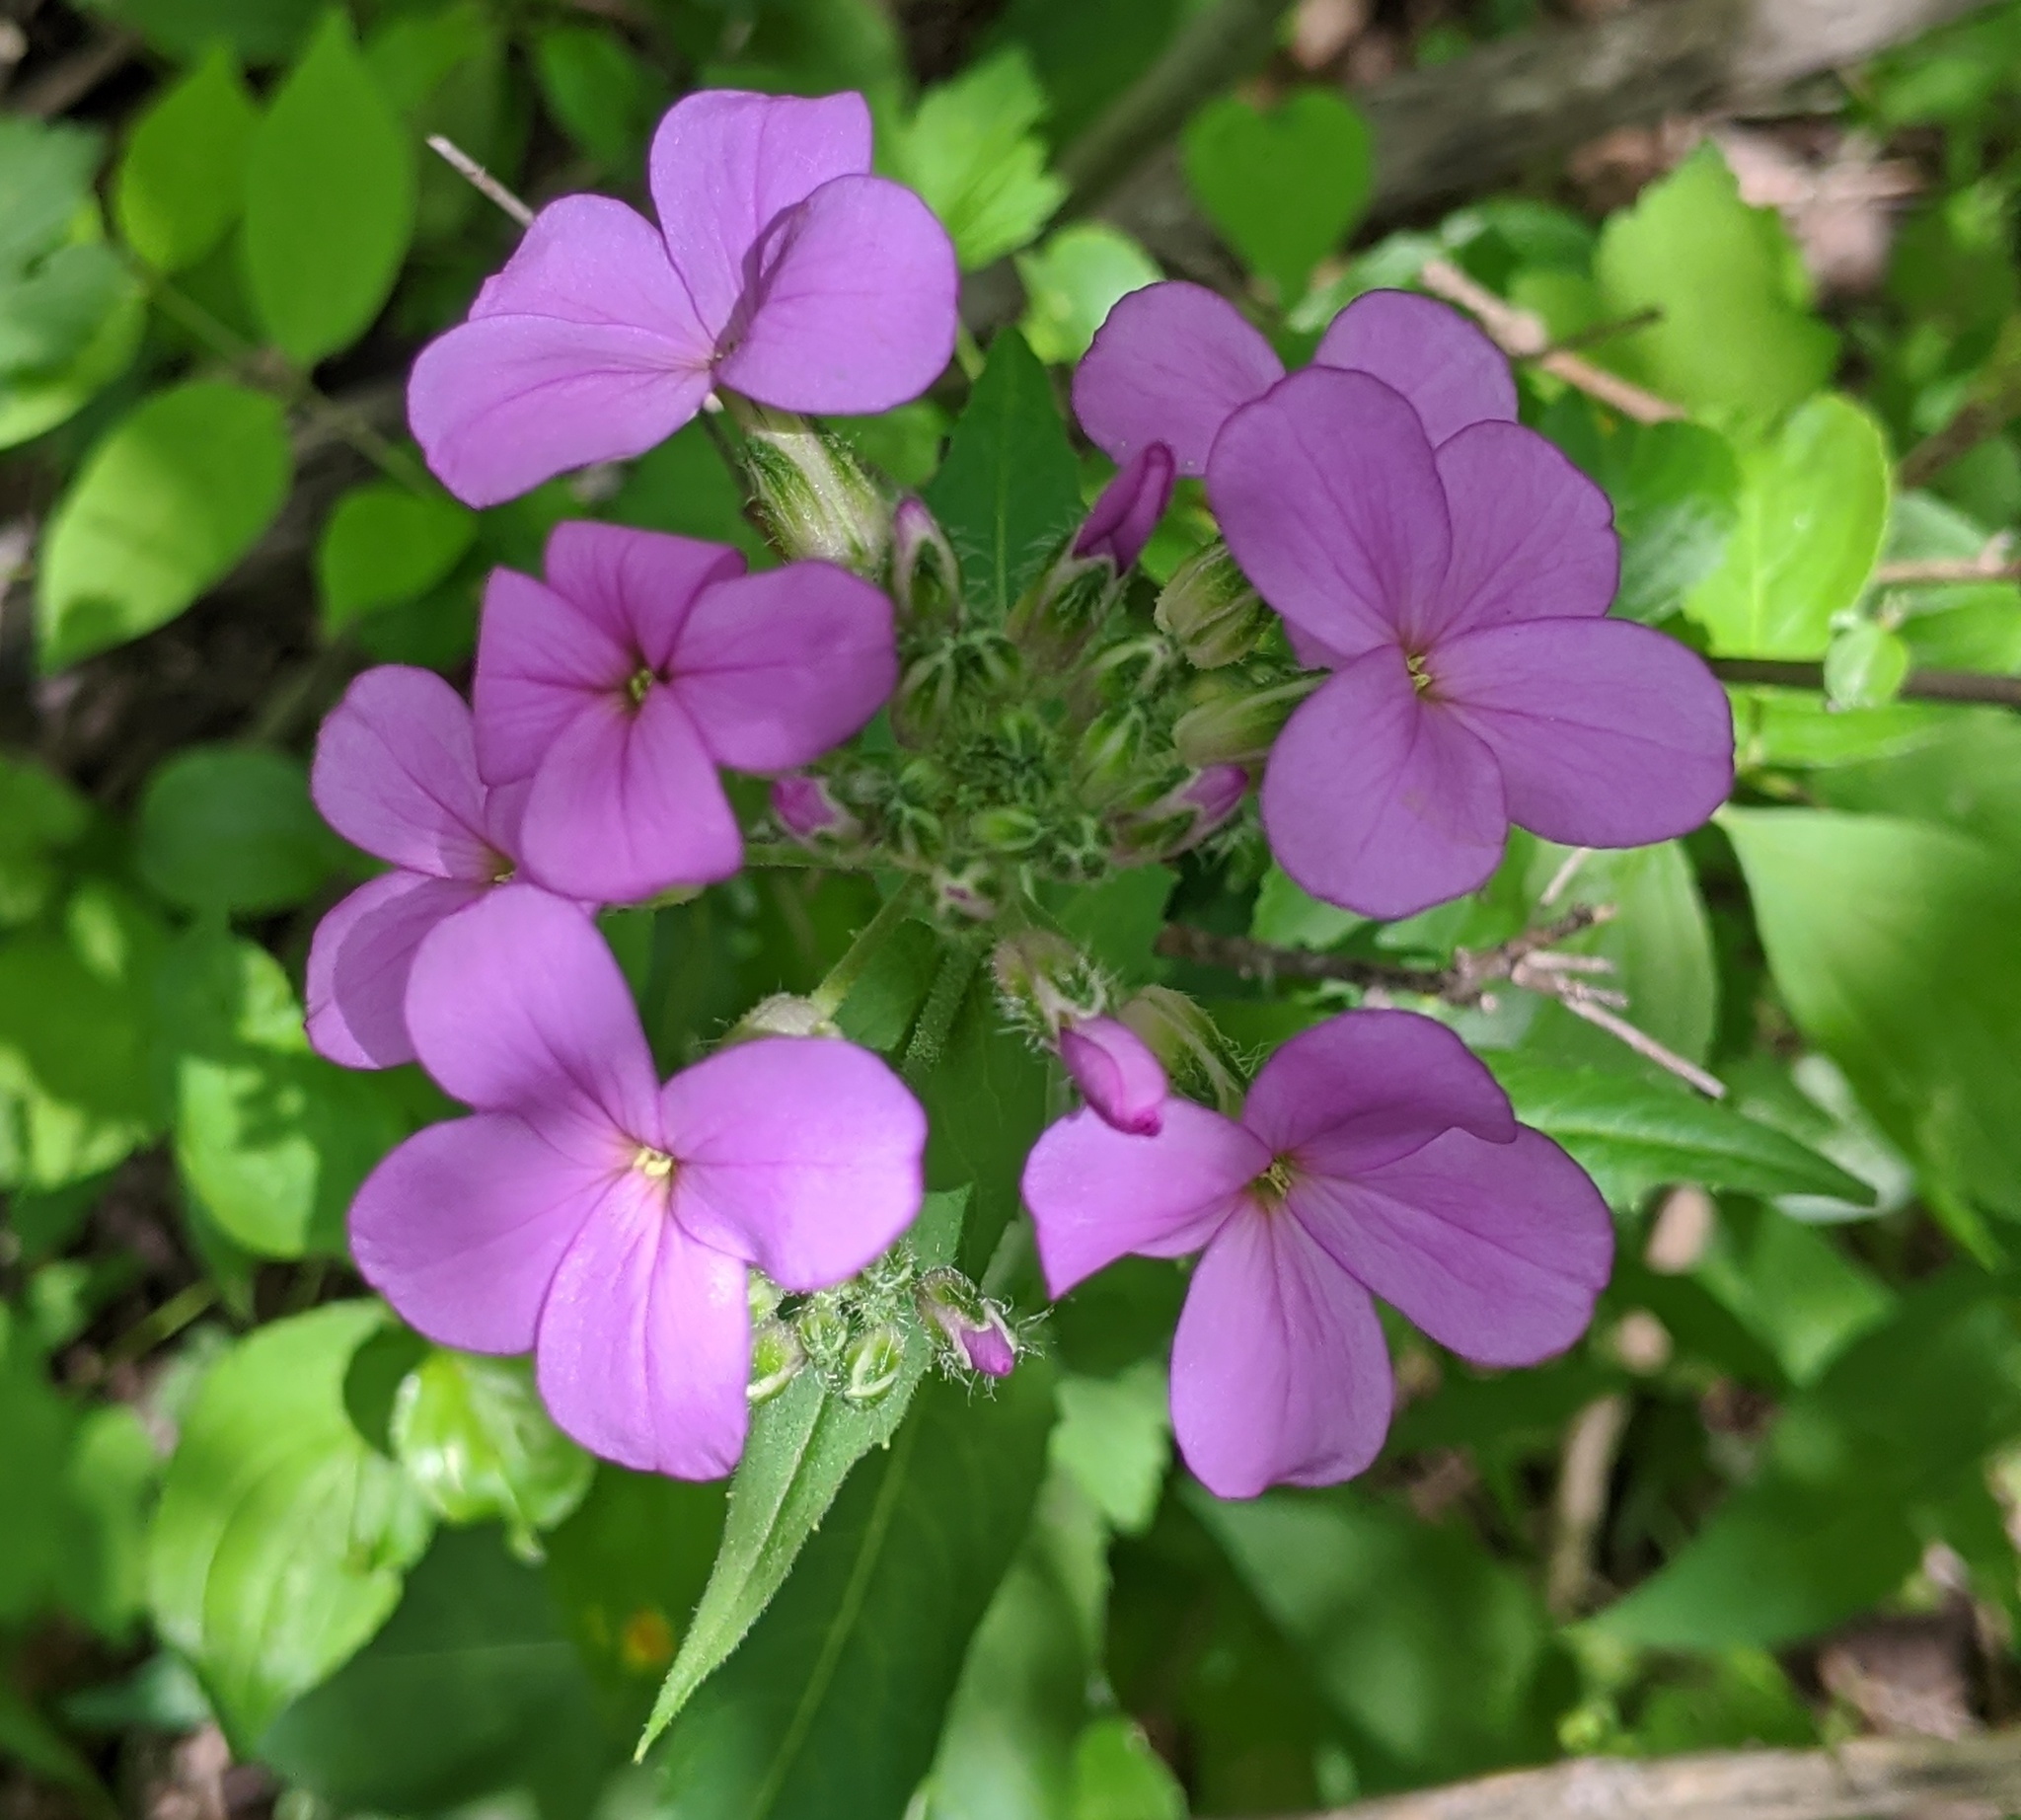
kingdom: Plantae
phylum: Tracheophyta
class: Magnoliopsida
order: Brassicales
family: Brassicaceae
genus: Hesperis
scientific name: Hesperis matronalis
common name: Dame's-violet
